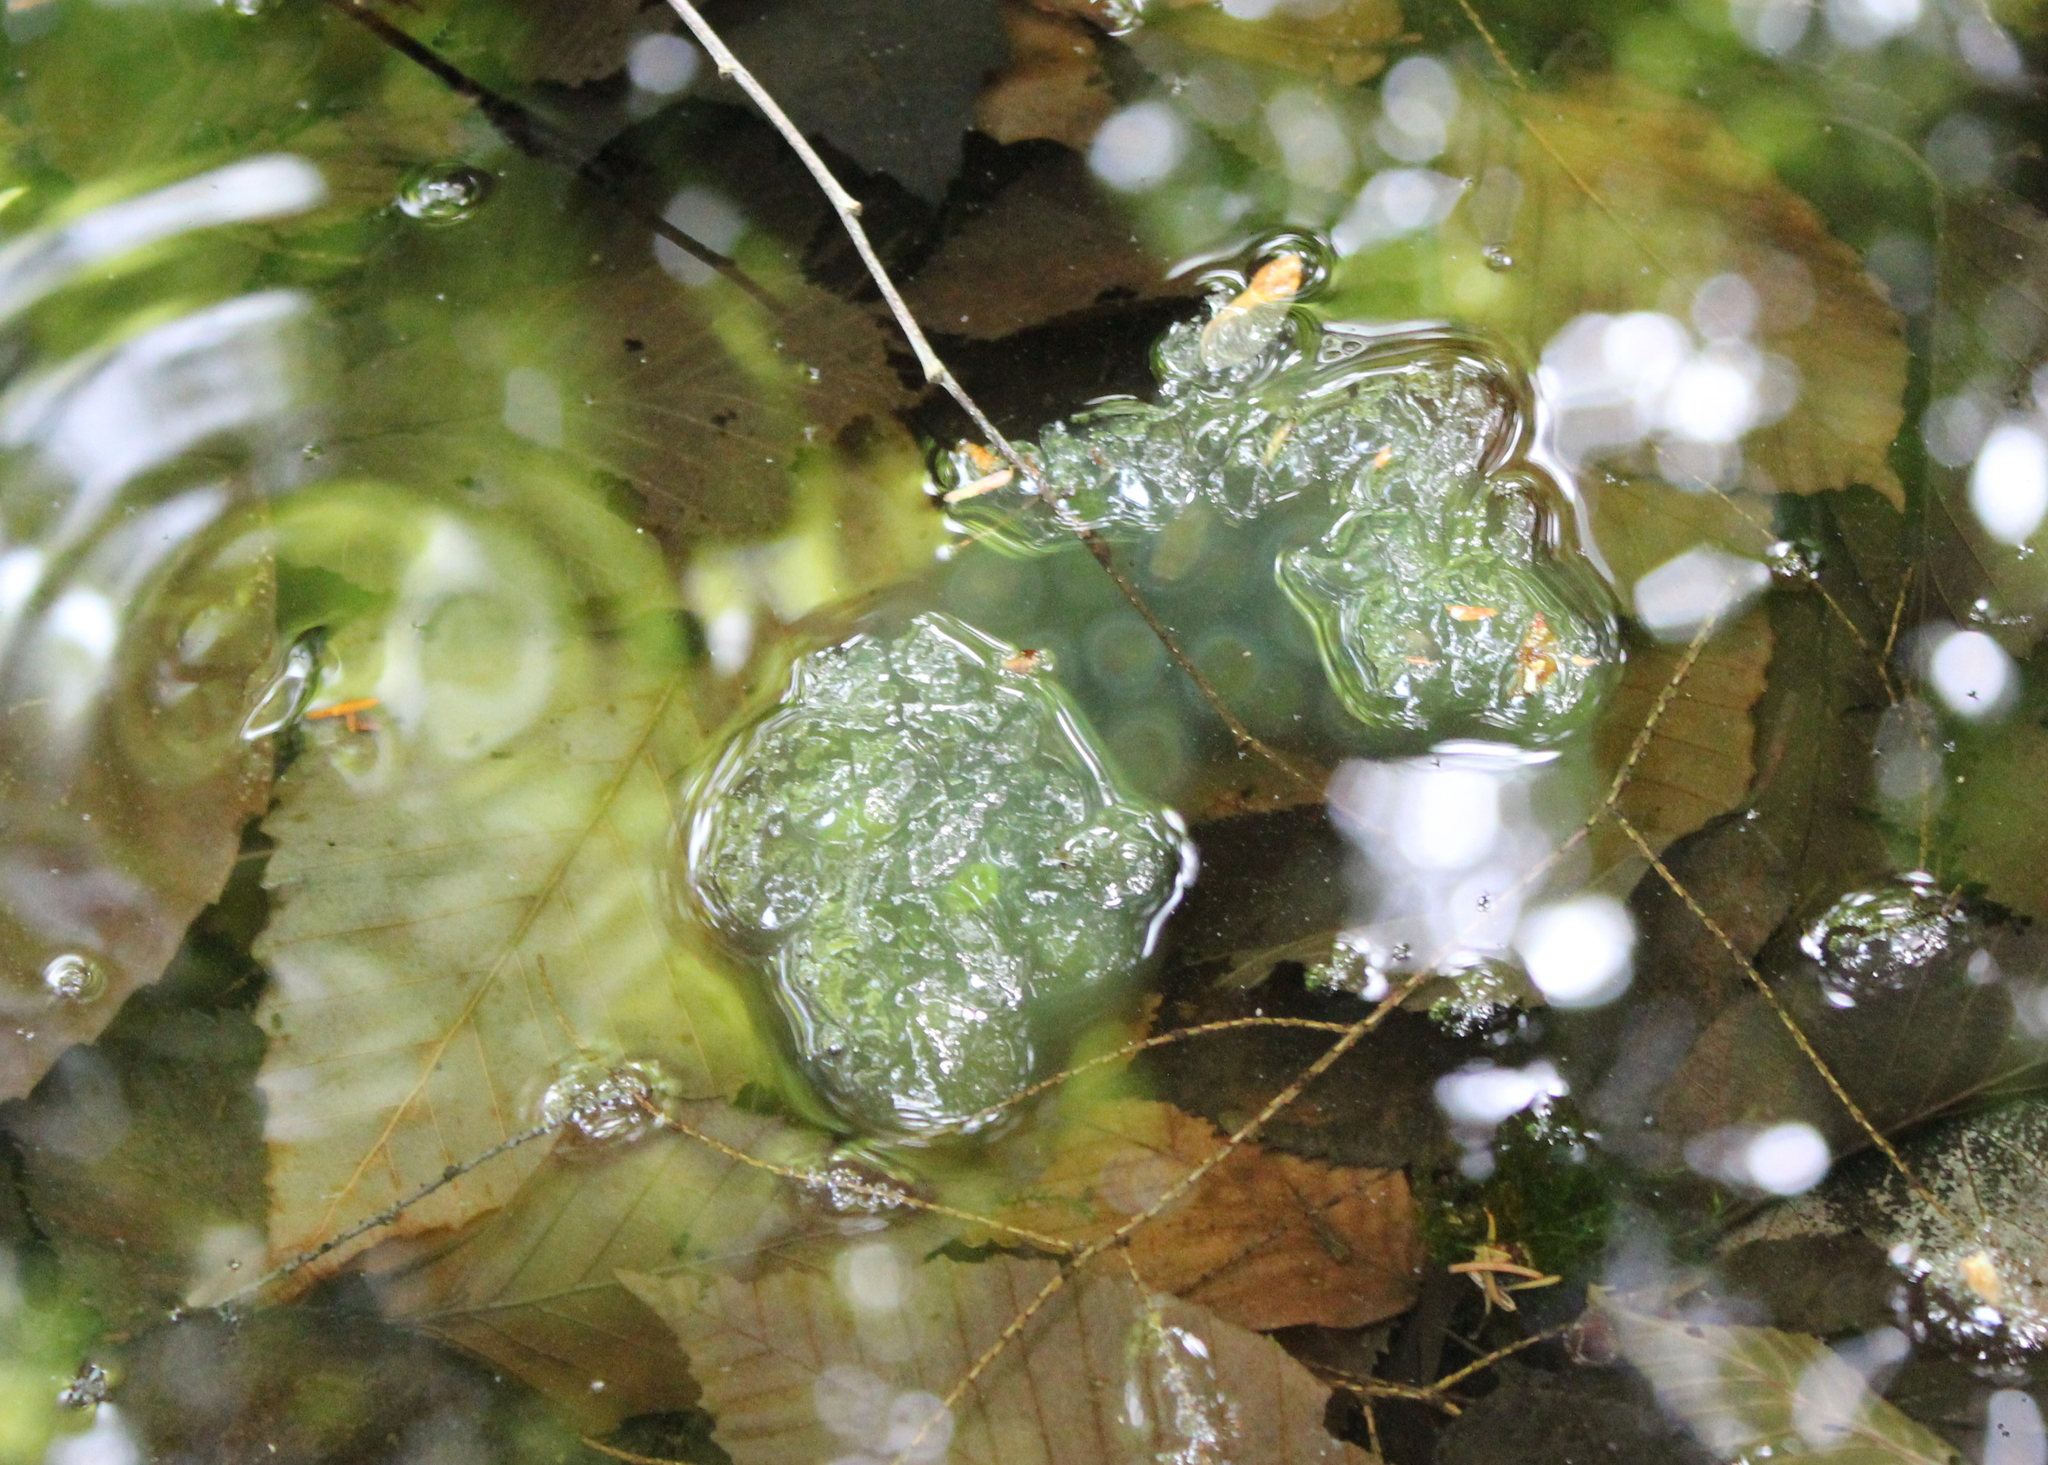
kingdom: Animalia
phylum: Chordata
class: Amphibia
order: Caudata
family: Ambystomatidae
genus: Ambystoma
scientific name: Ambystoma maculatum
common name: Spotted salamander
